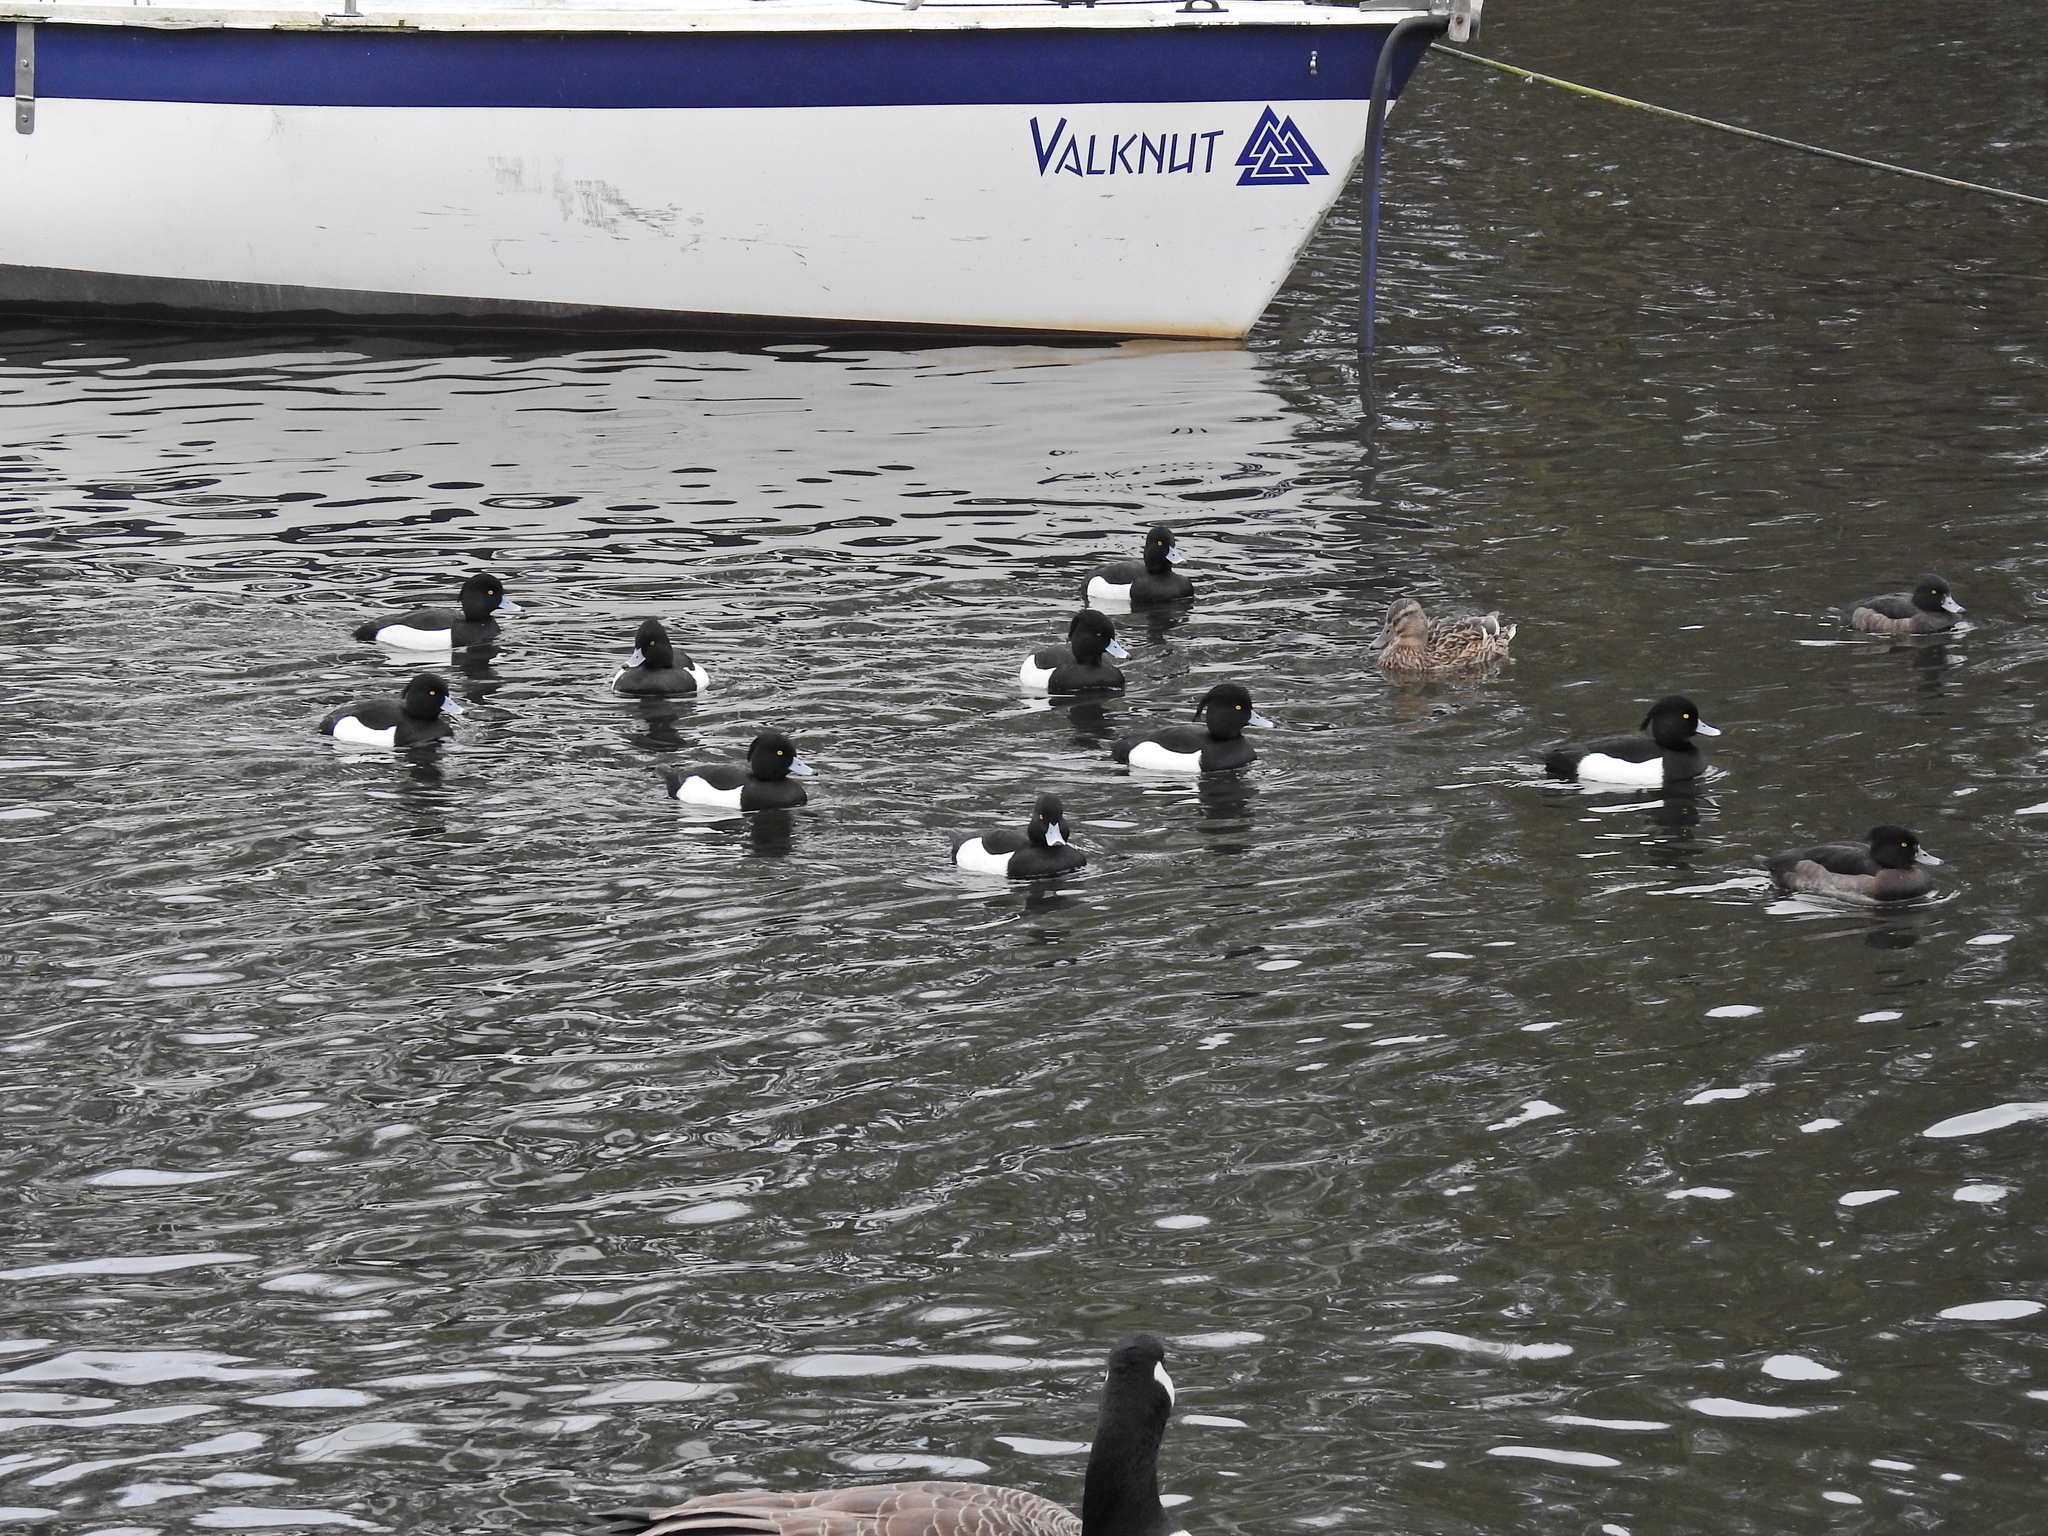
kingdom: Animalia
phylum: Chordata
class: Aves
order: Anseriformes
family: Anatidae
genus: Aythya
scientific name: Aythya fuligula
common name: Tufted duck
